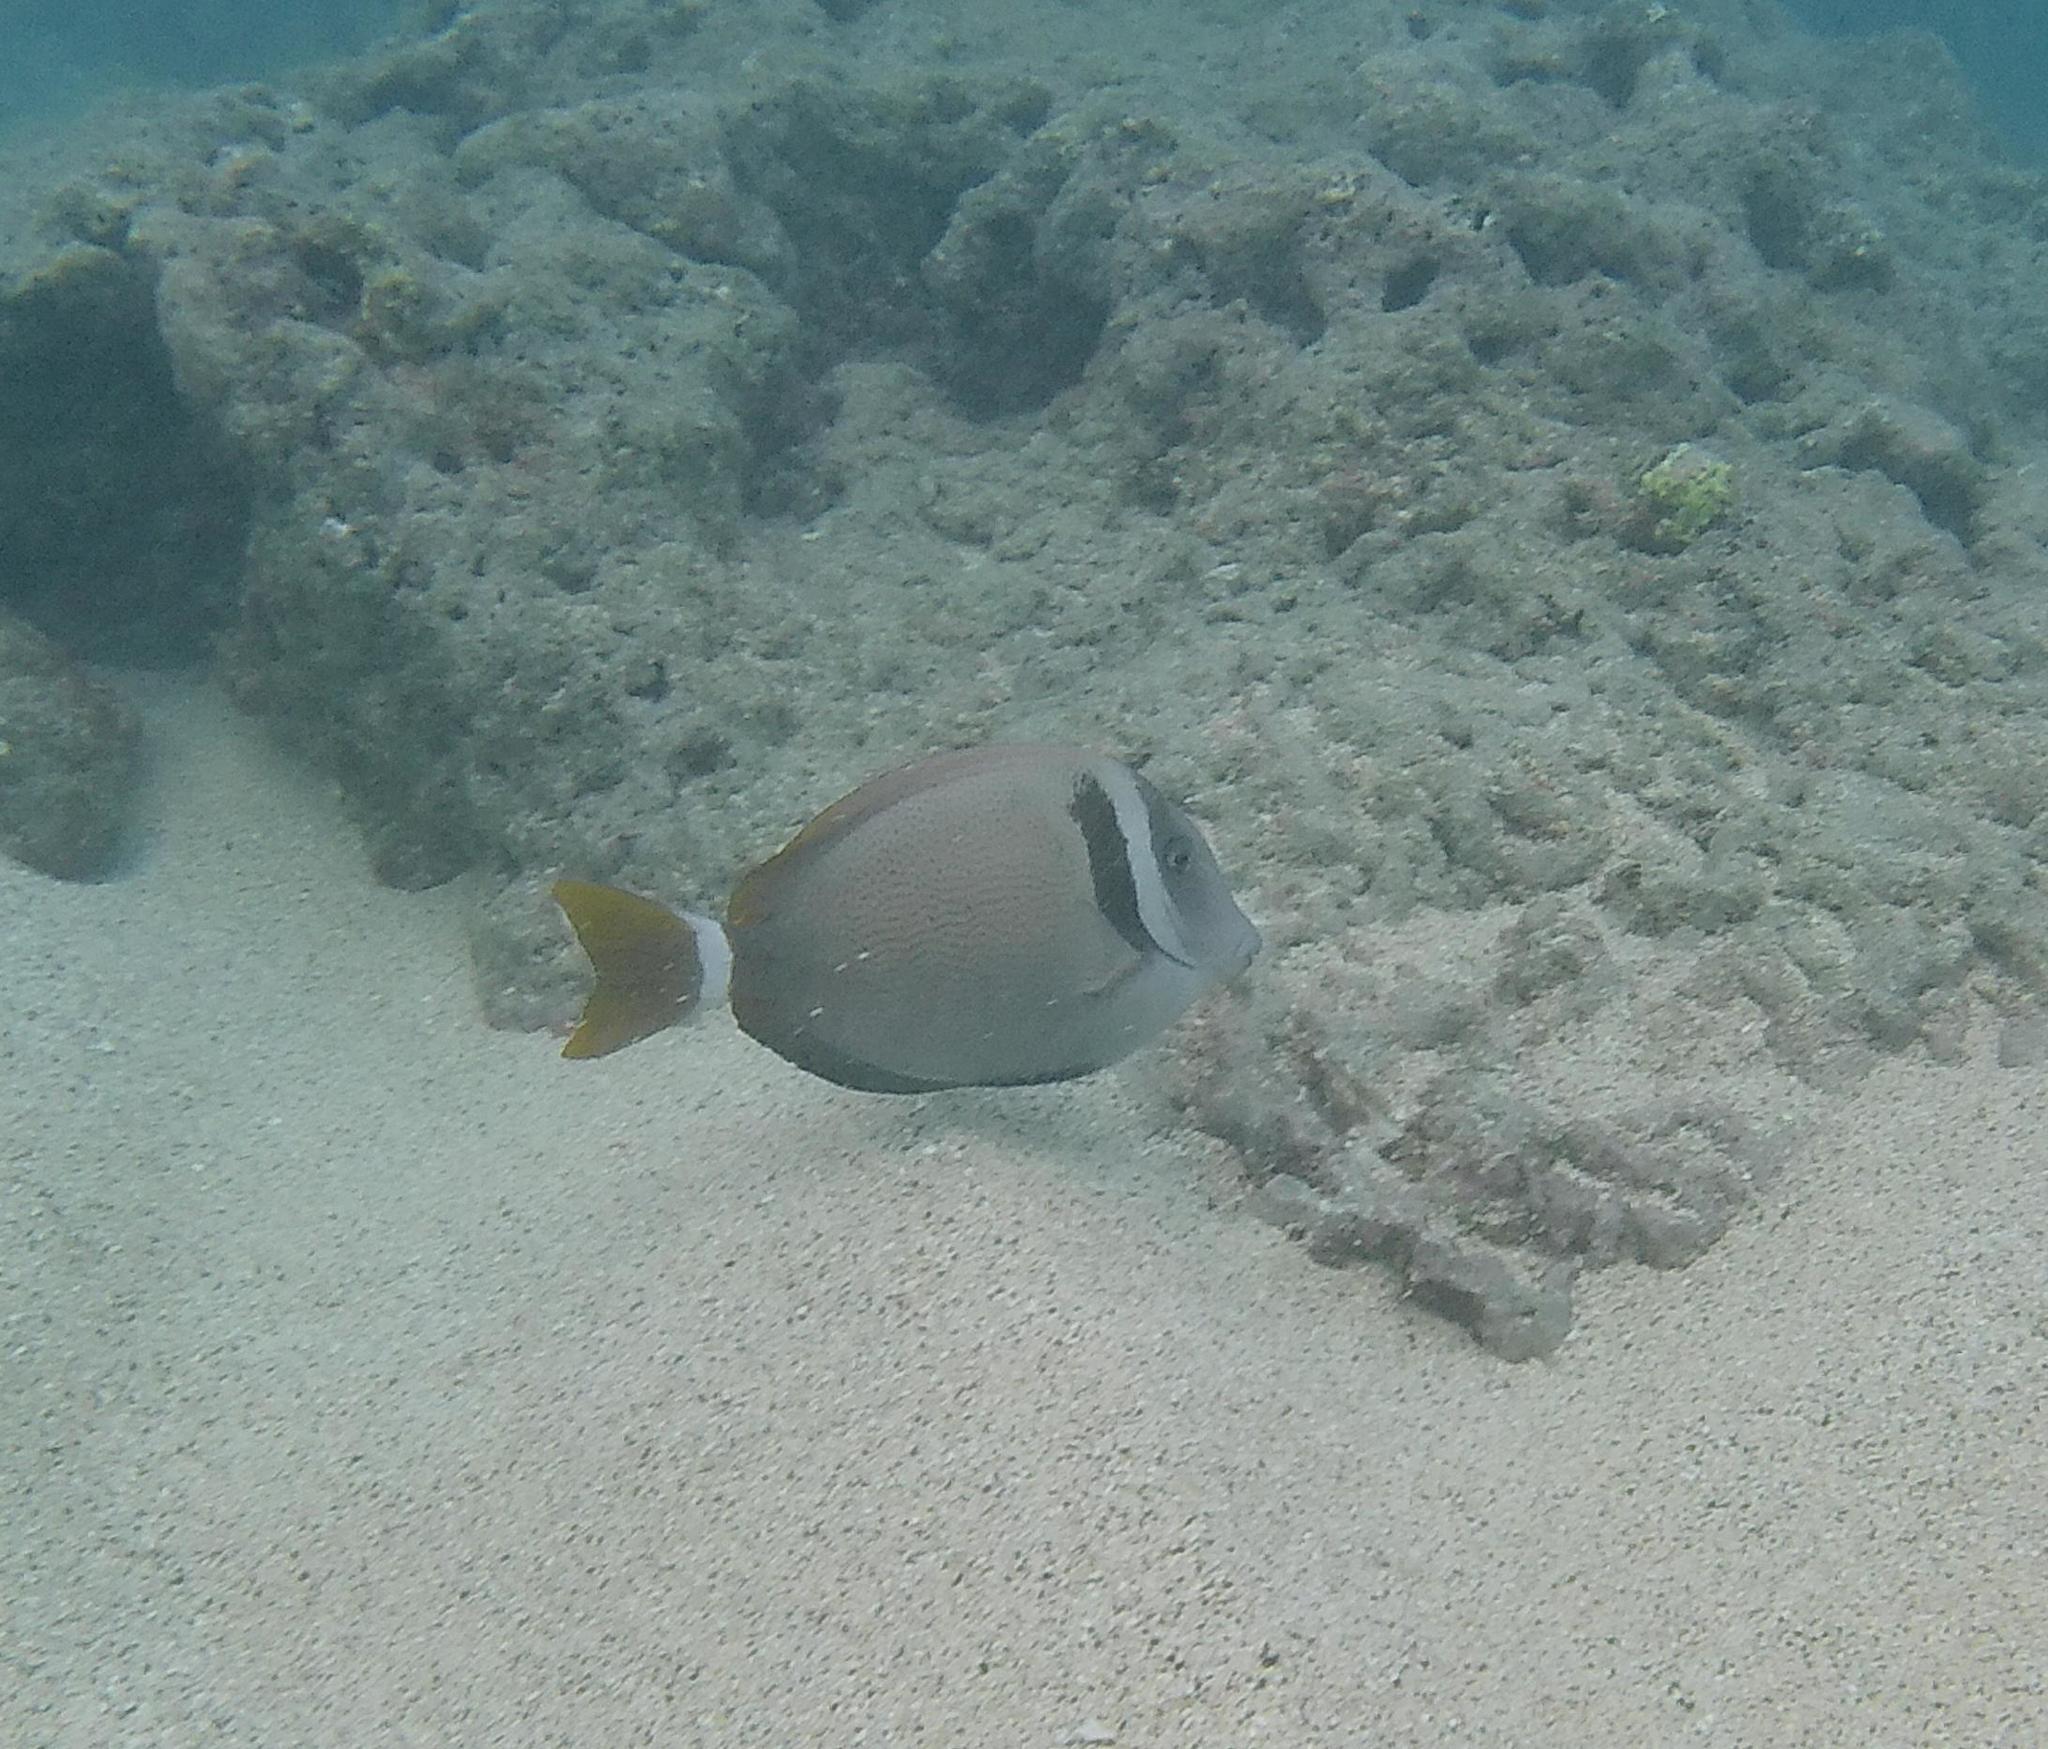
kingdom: Animalia
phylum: Chordata
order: Perciformes
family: Acanthuridae
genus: Acanthurus
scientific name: Acanthurus leucopareius
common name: Head-band surgeonfish
